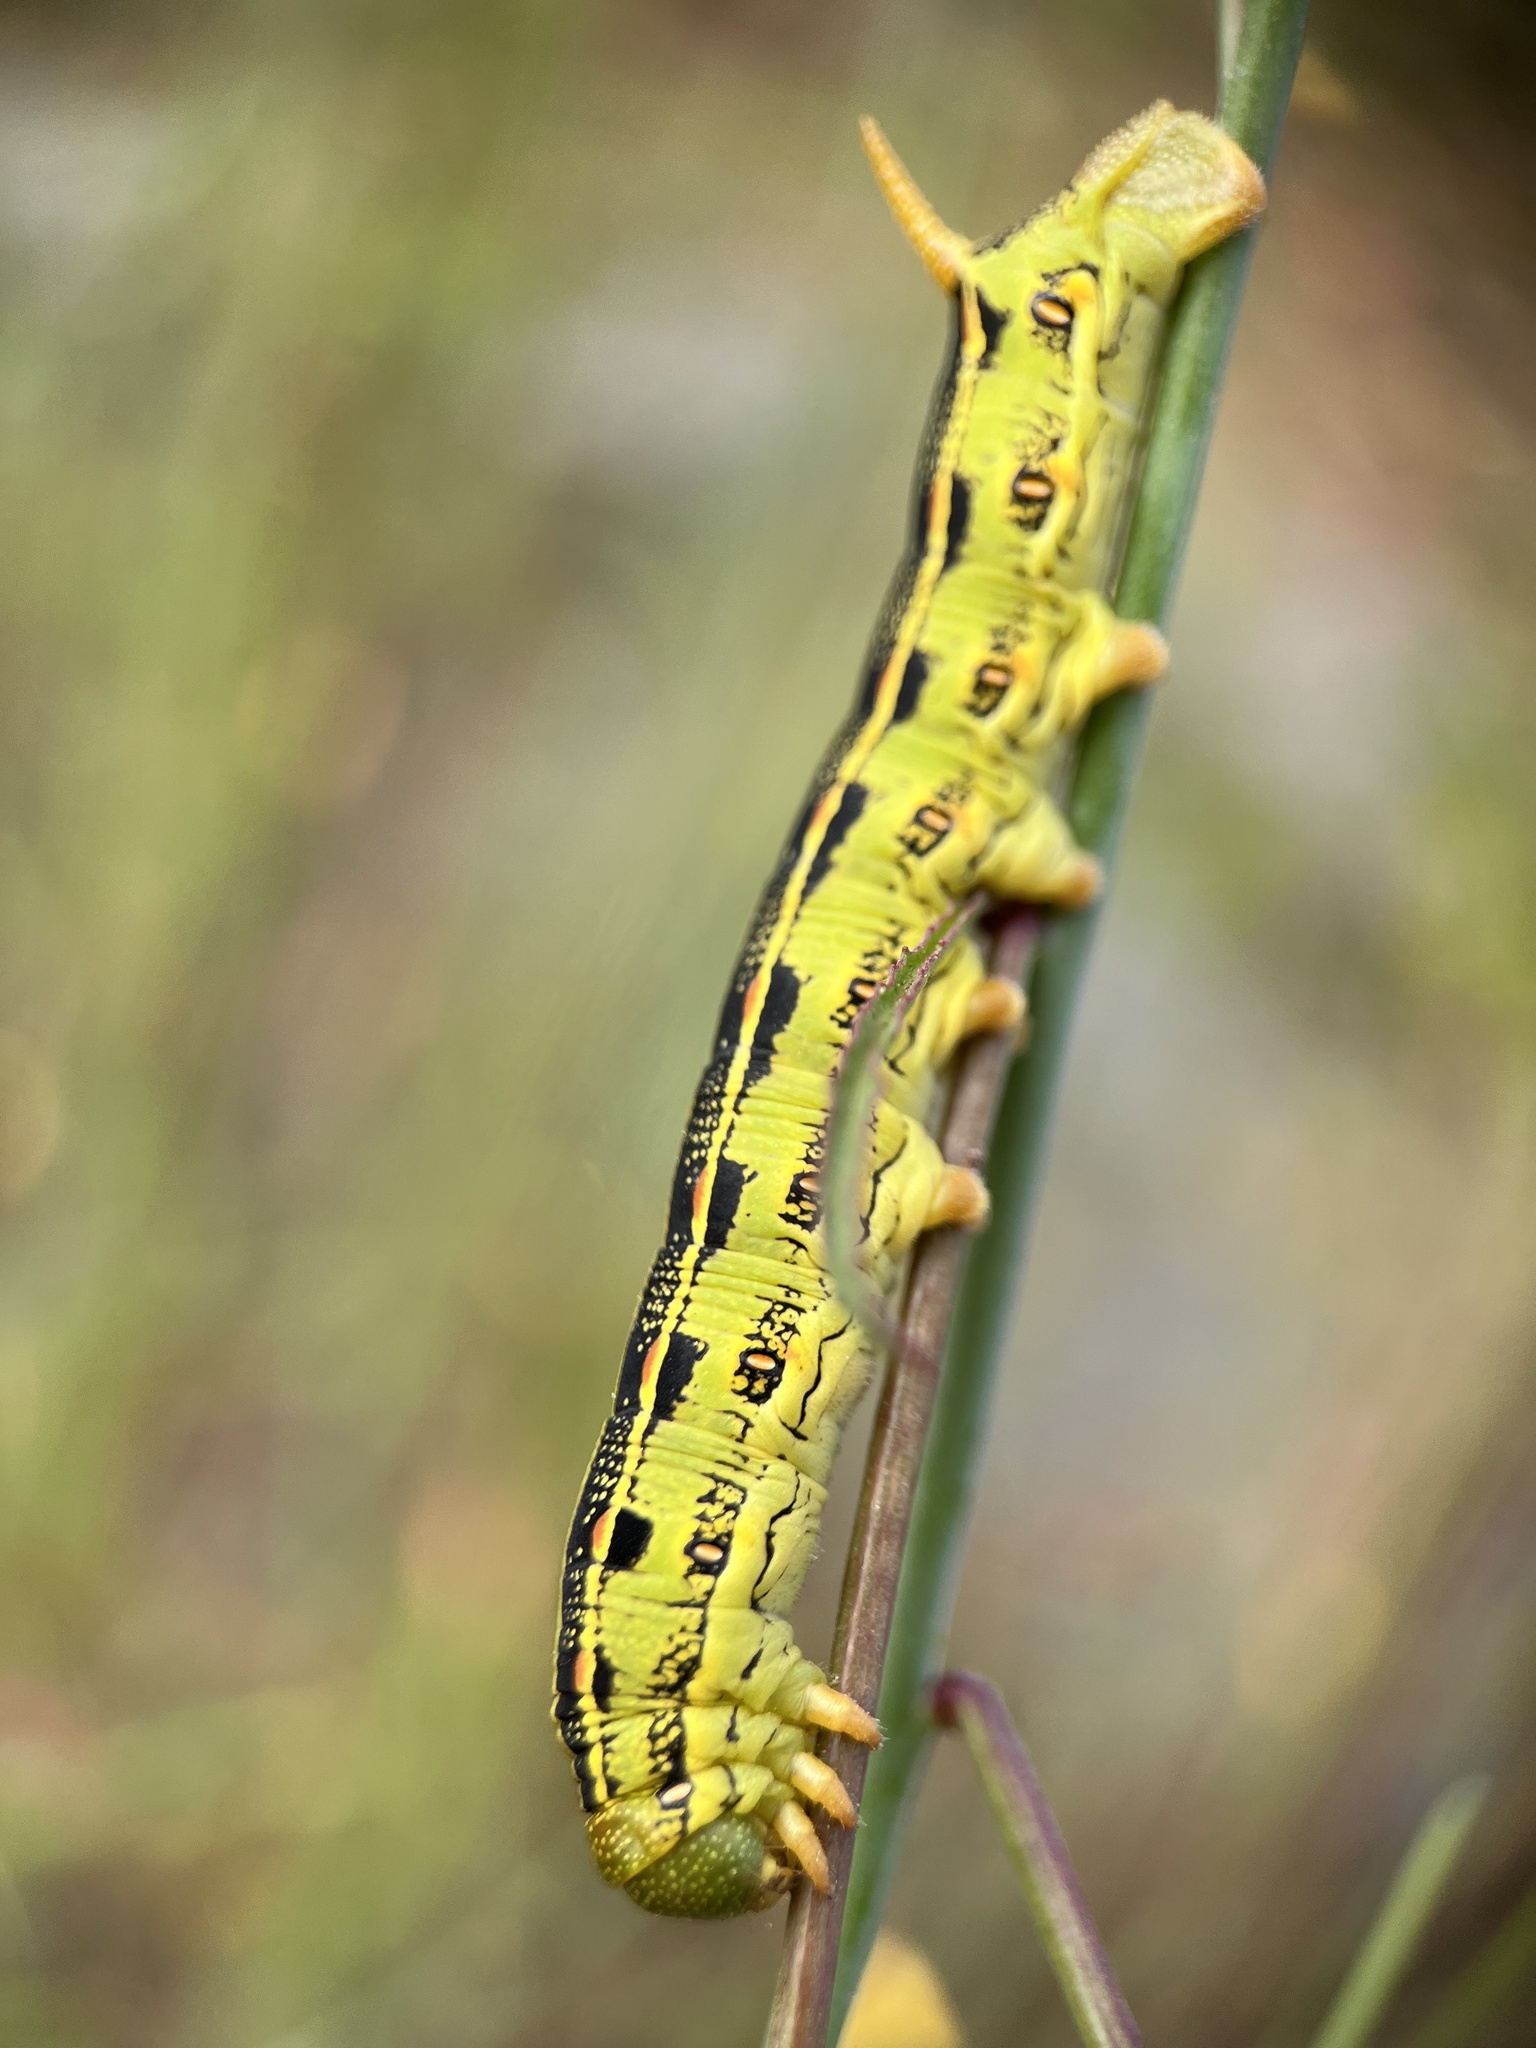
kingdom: Animalia
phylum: Arthropoda
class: Insecta
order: Lepidoptera
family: Sphingidae
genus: Hyles
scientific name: Hyles lineata
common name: White-lined sphinx
